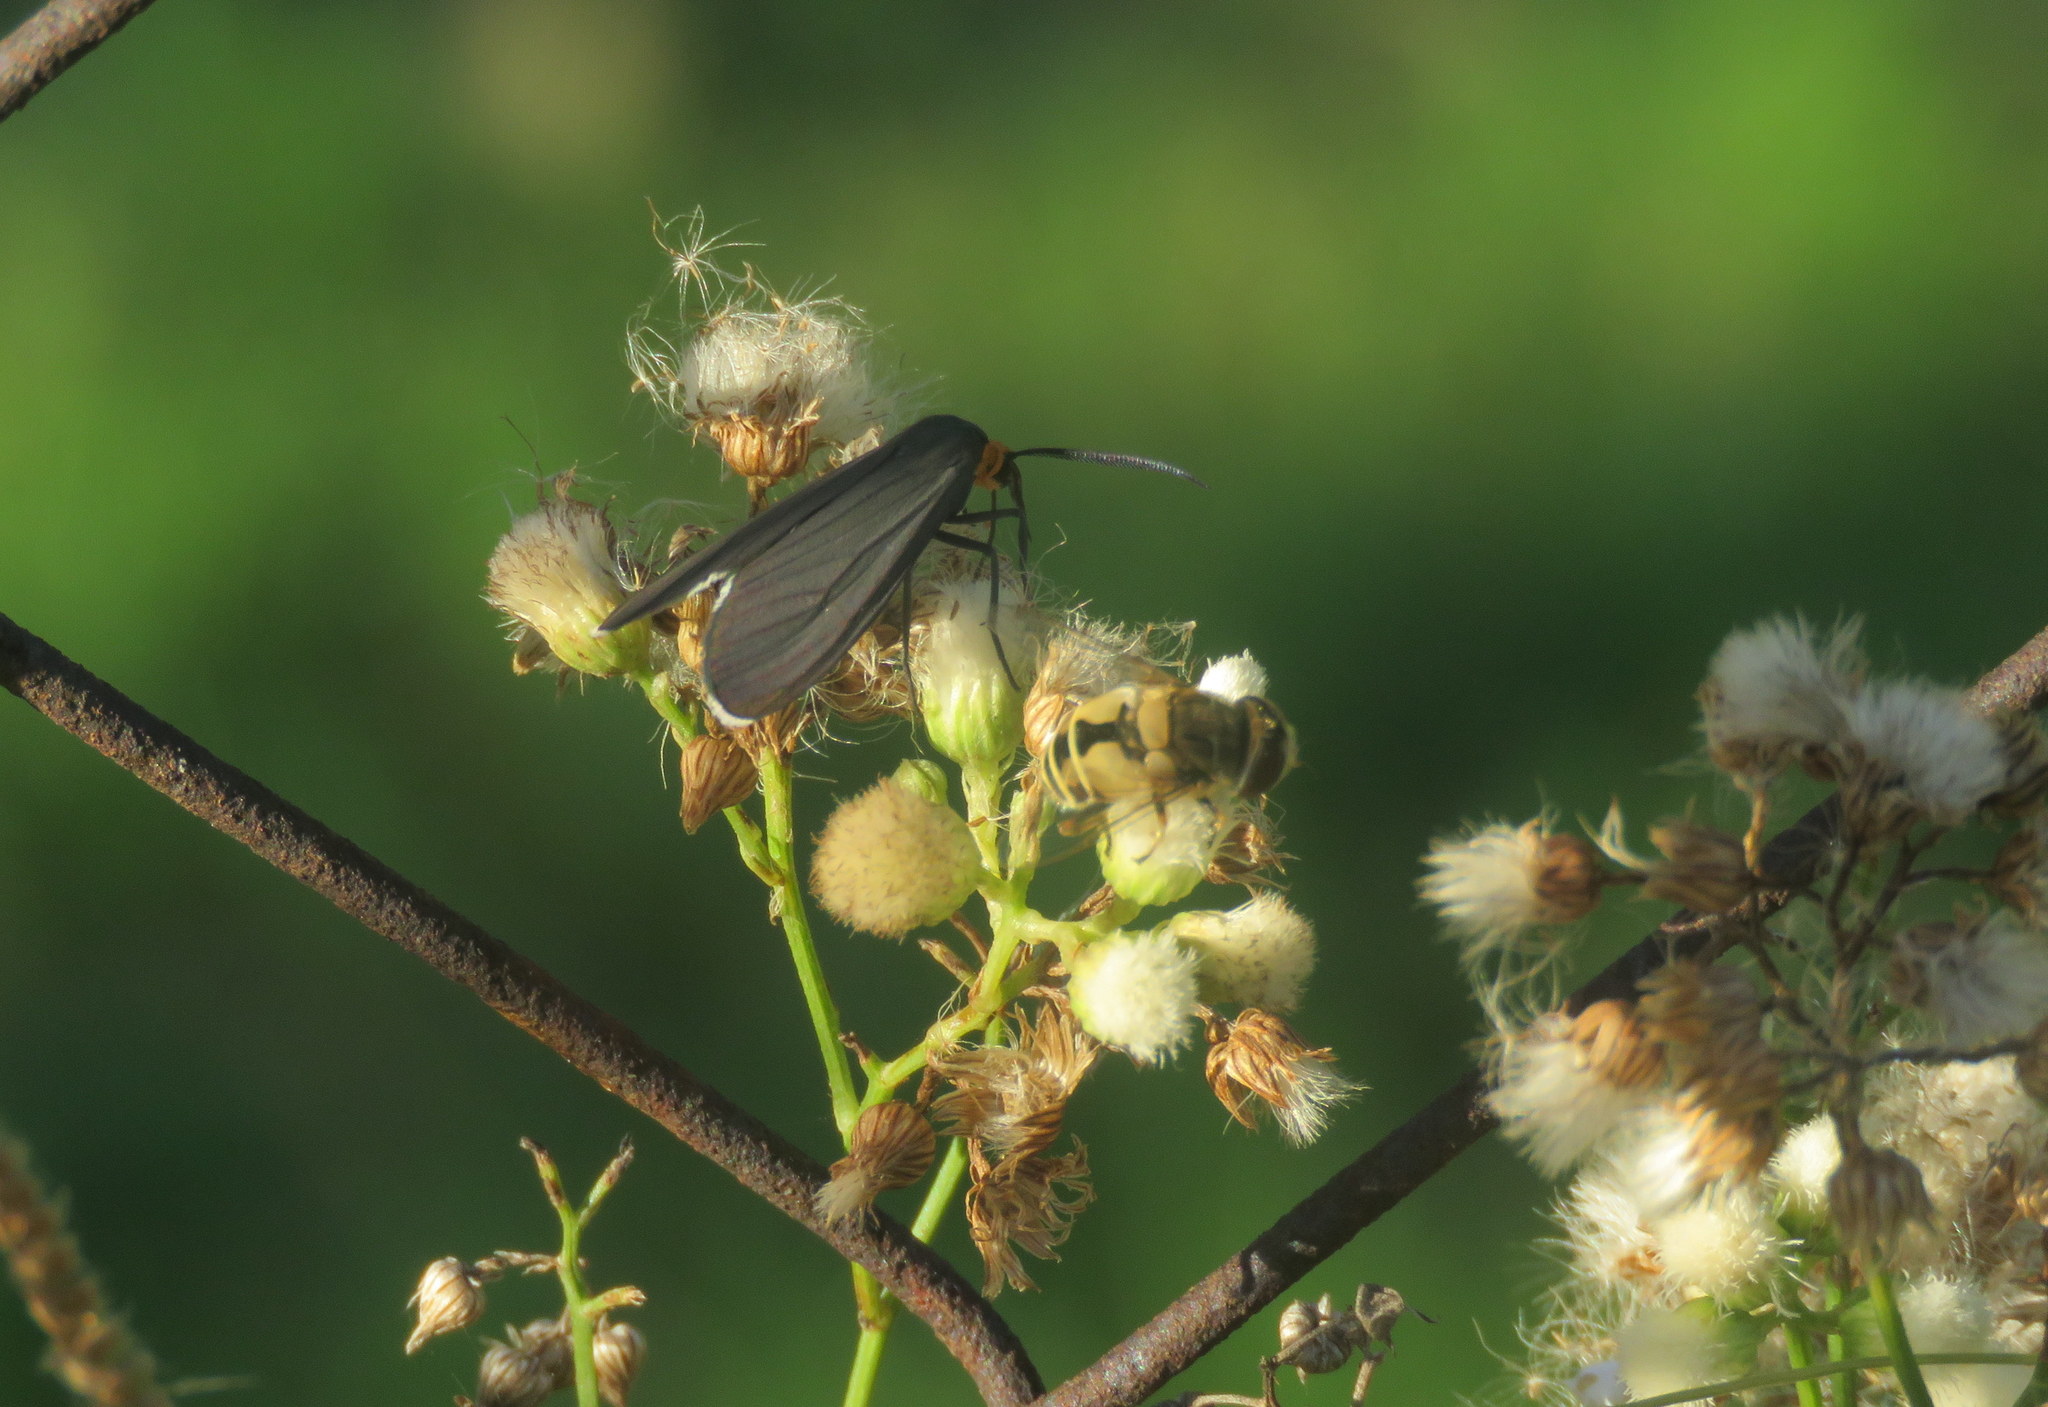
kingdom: Animalia
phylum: Arthropoda
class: Insecta
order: Lepidoptera
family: Erebidae
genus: Ctenucha
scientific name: Ctenucha rubriceps
